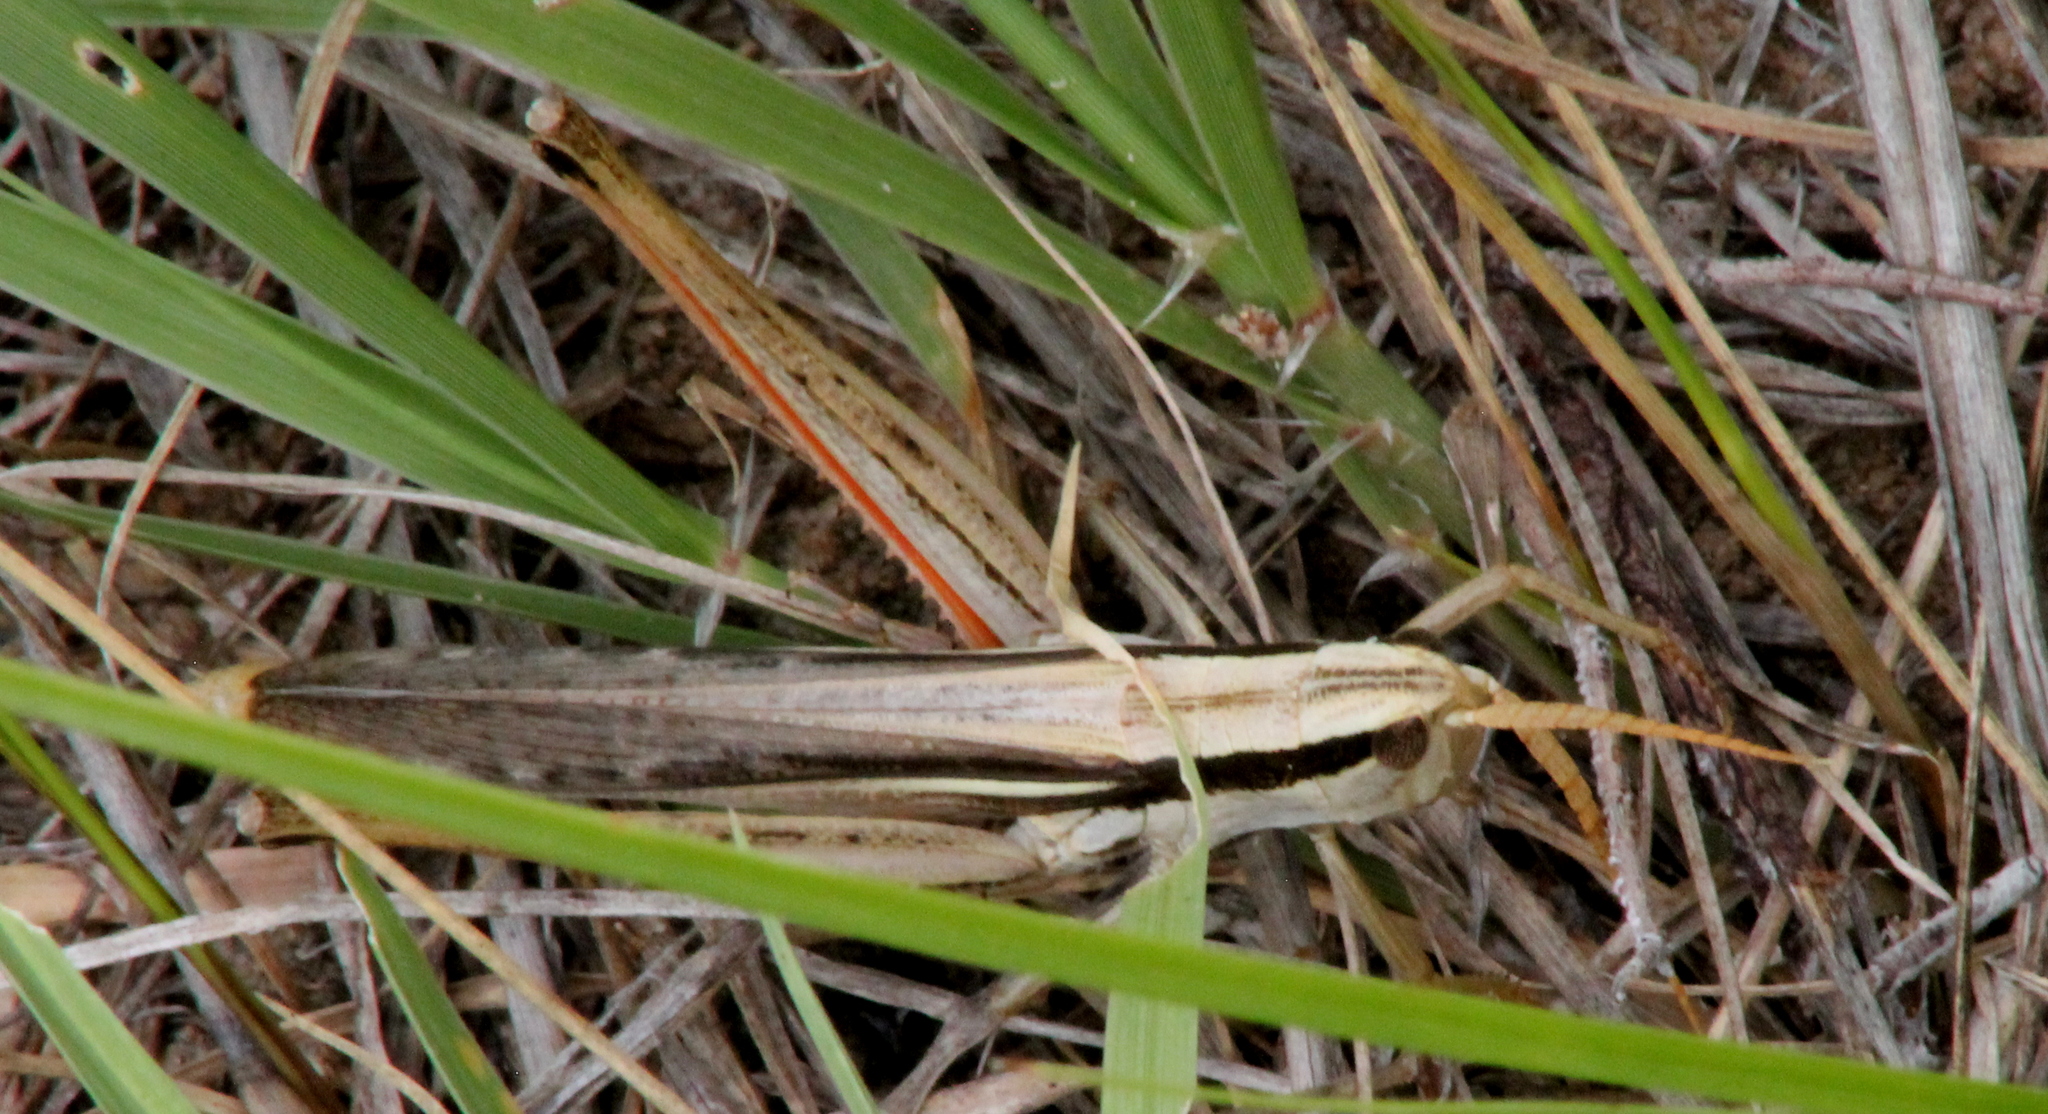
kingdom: Animalia
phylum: Arthropoda
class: Insecta
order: Orthoptera
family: Acrididae
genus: Mermiria
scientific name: Mermiria bivittata
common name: Two-striped mermiria grasshopper
